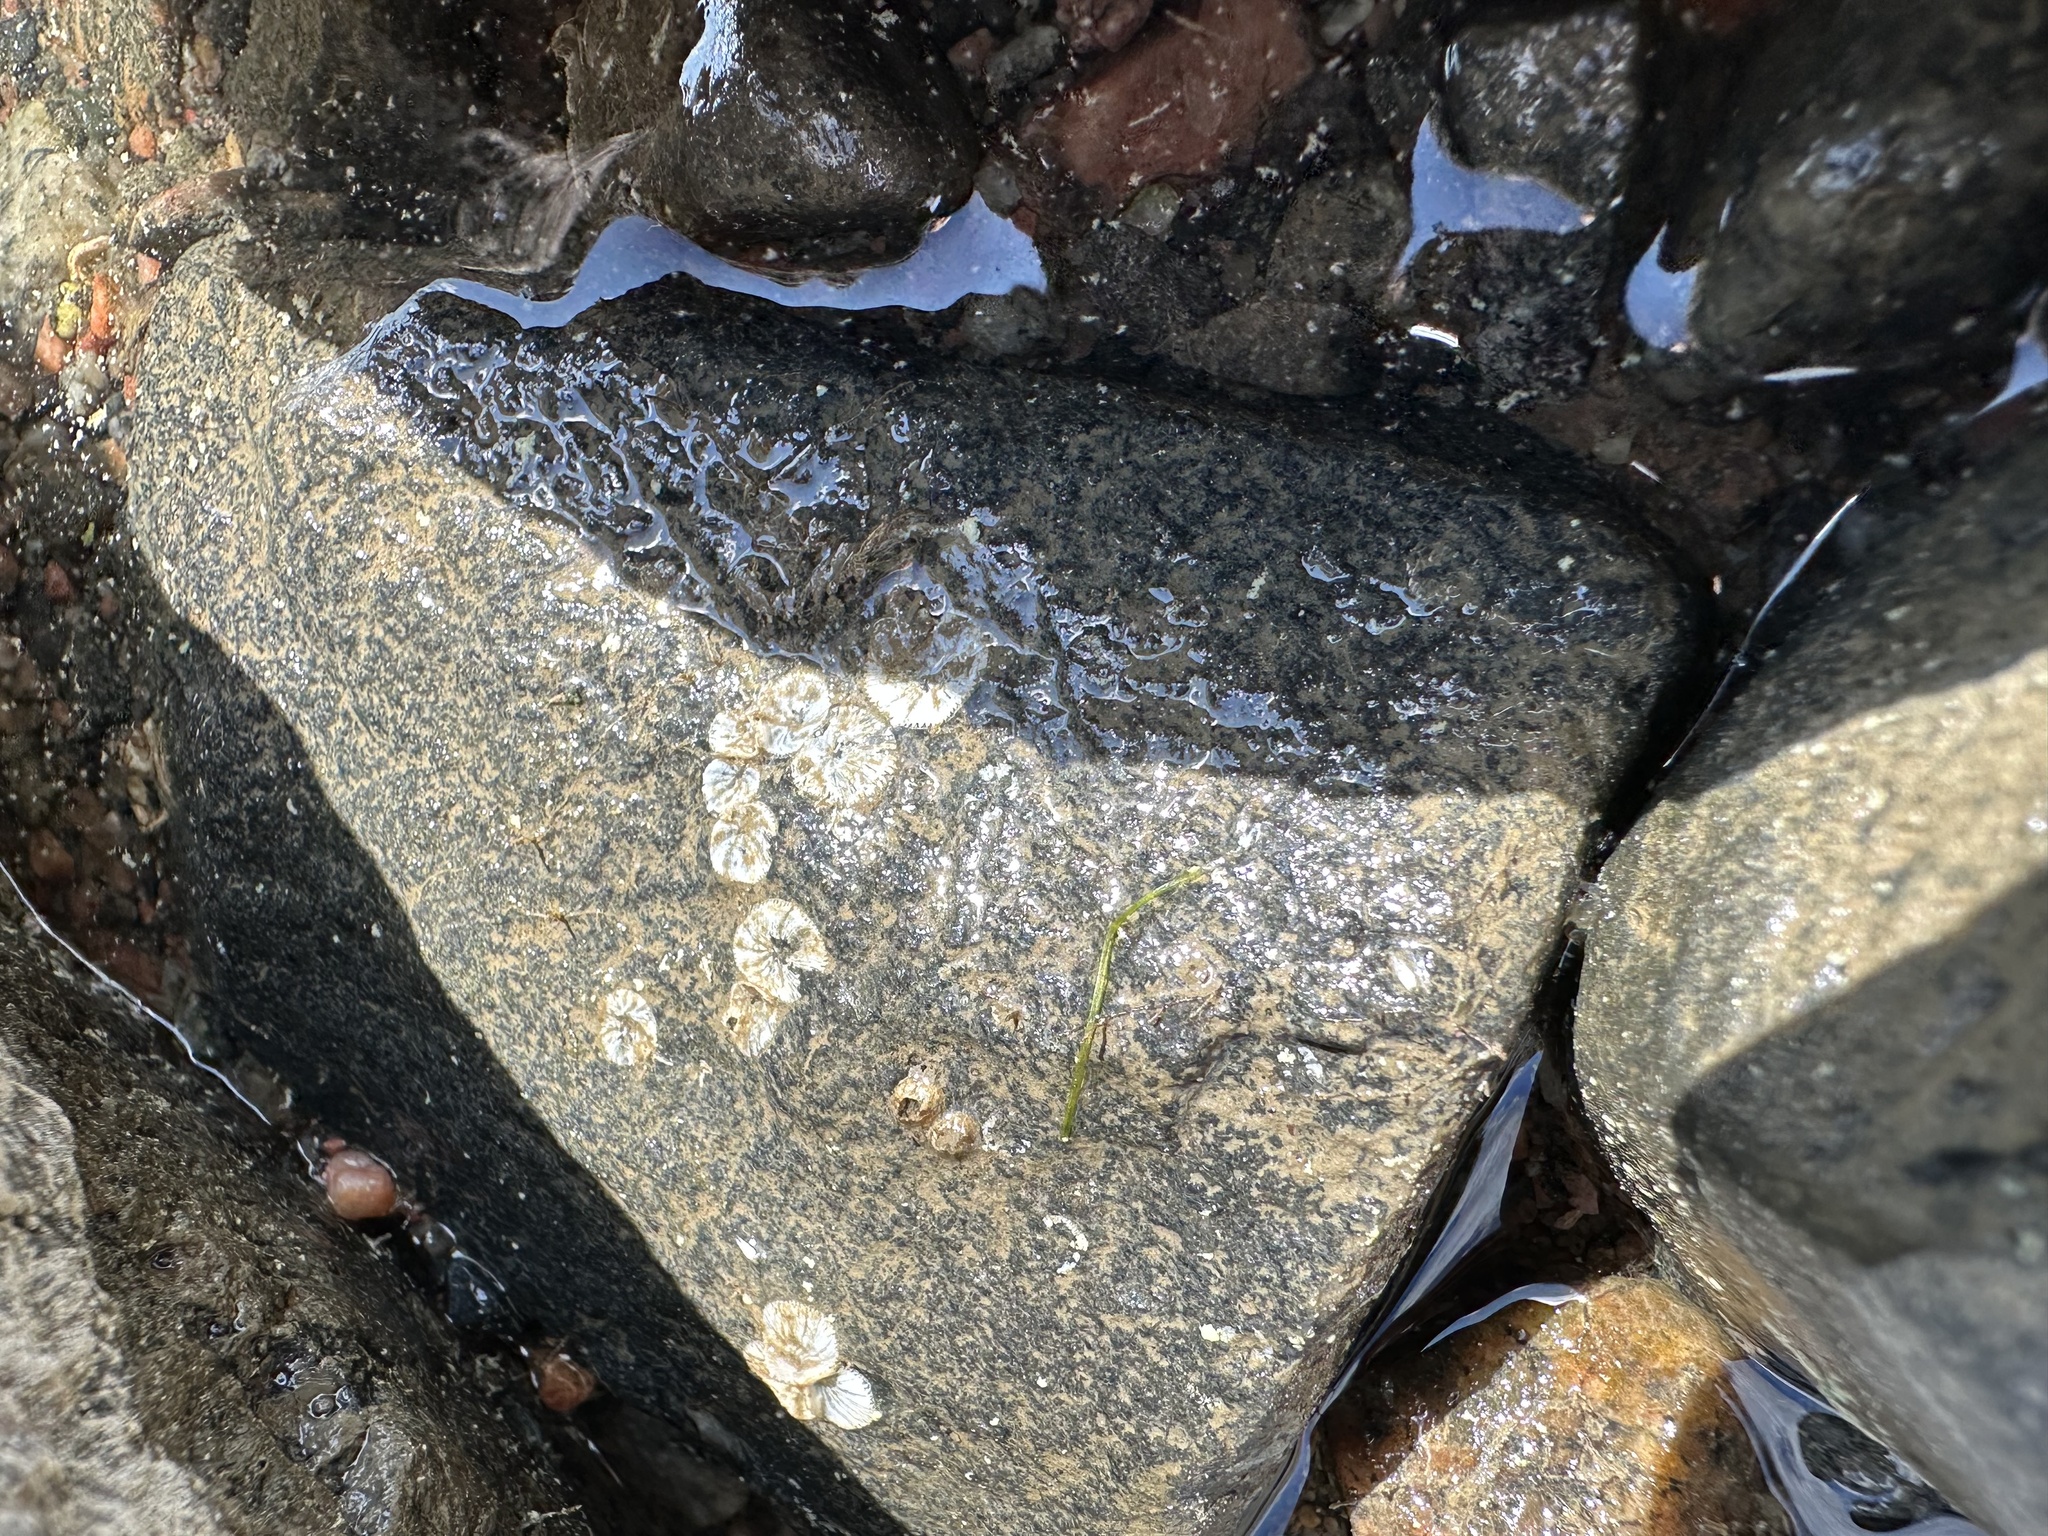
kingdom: Animalia
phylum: Arthropoda
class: Maxillopoda
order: Sessilia
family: Balanidae
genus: Amphibalanus
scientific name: Amphibalanus improvisus
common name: Bay barnacle
